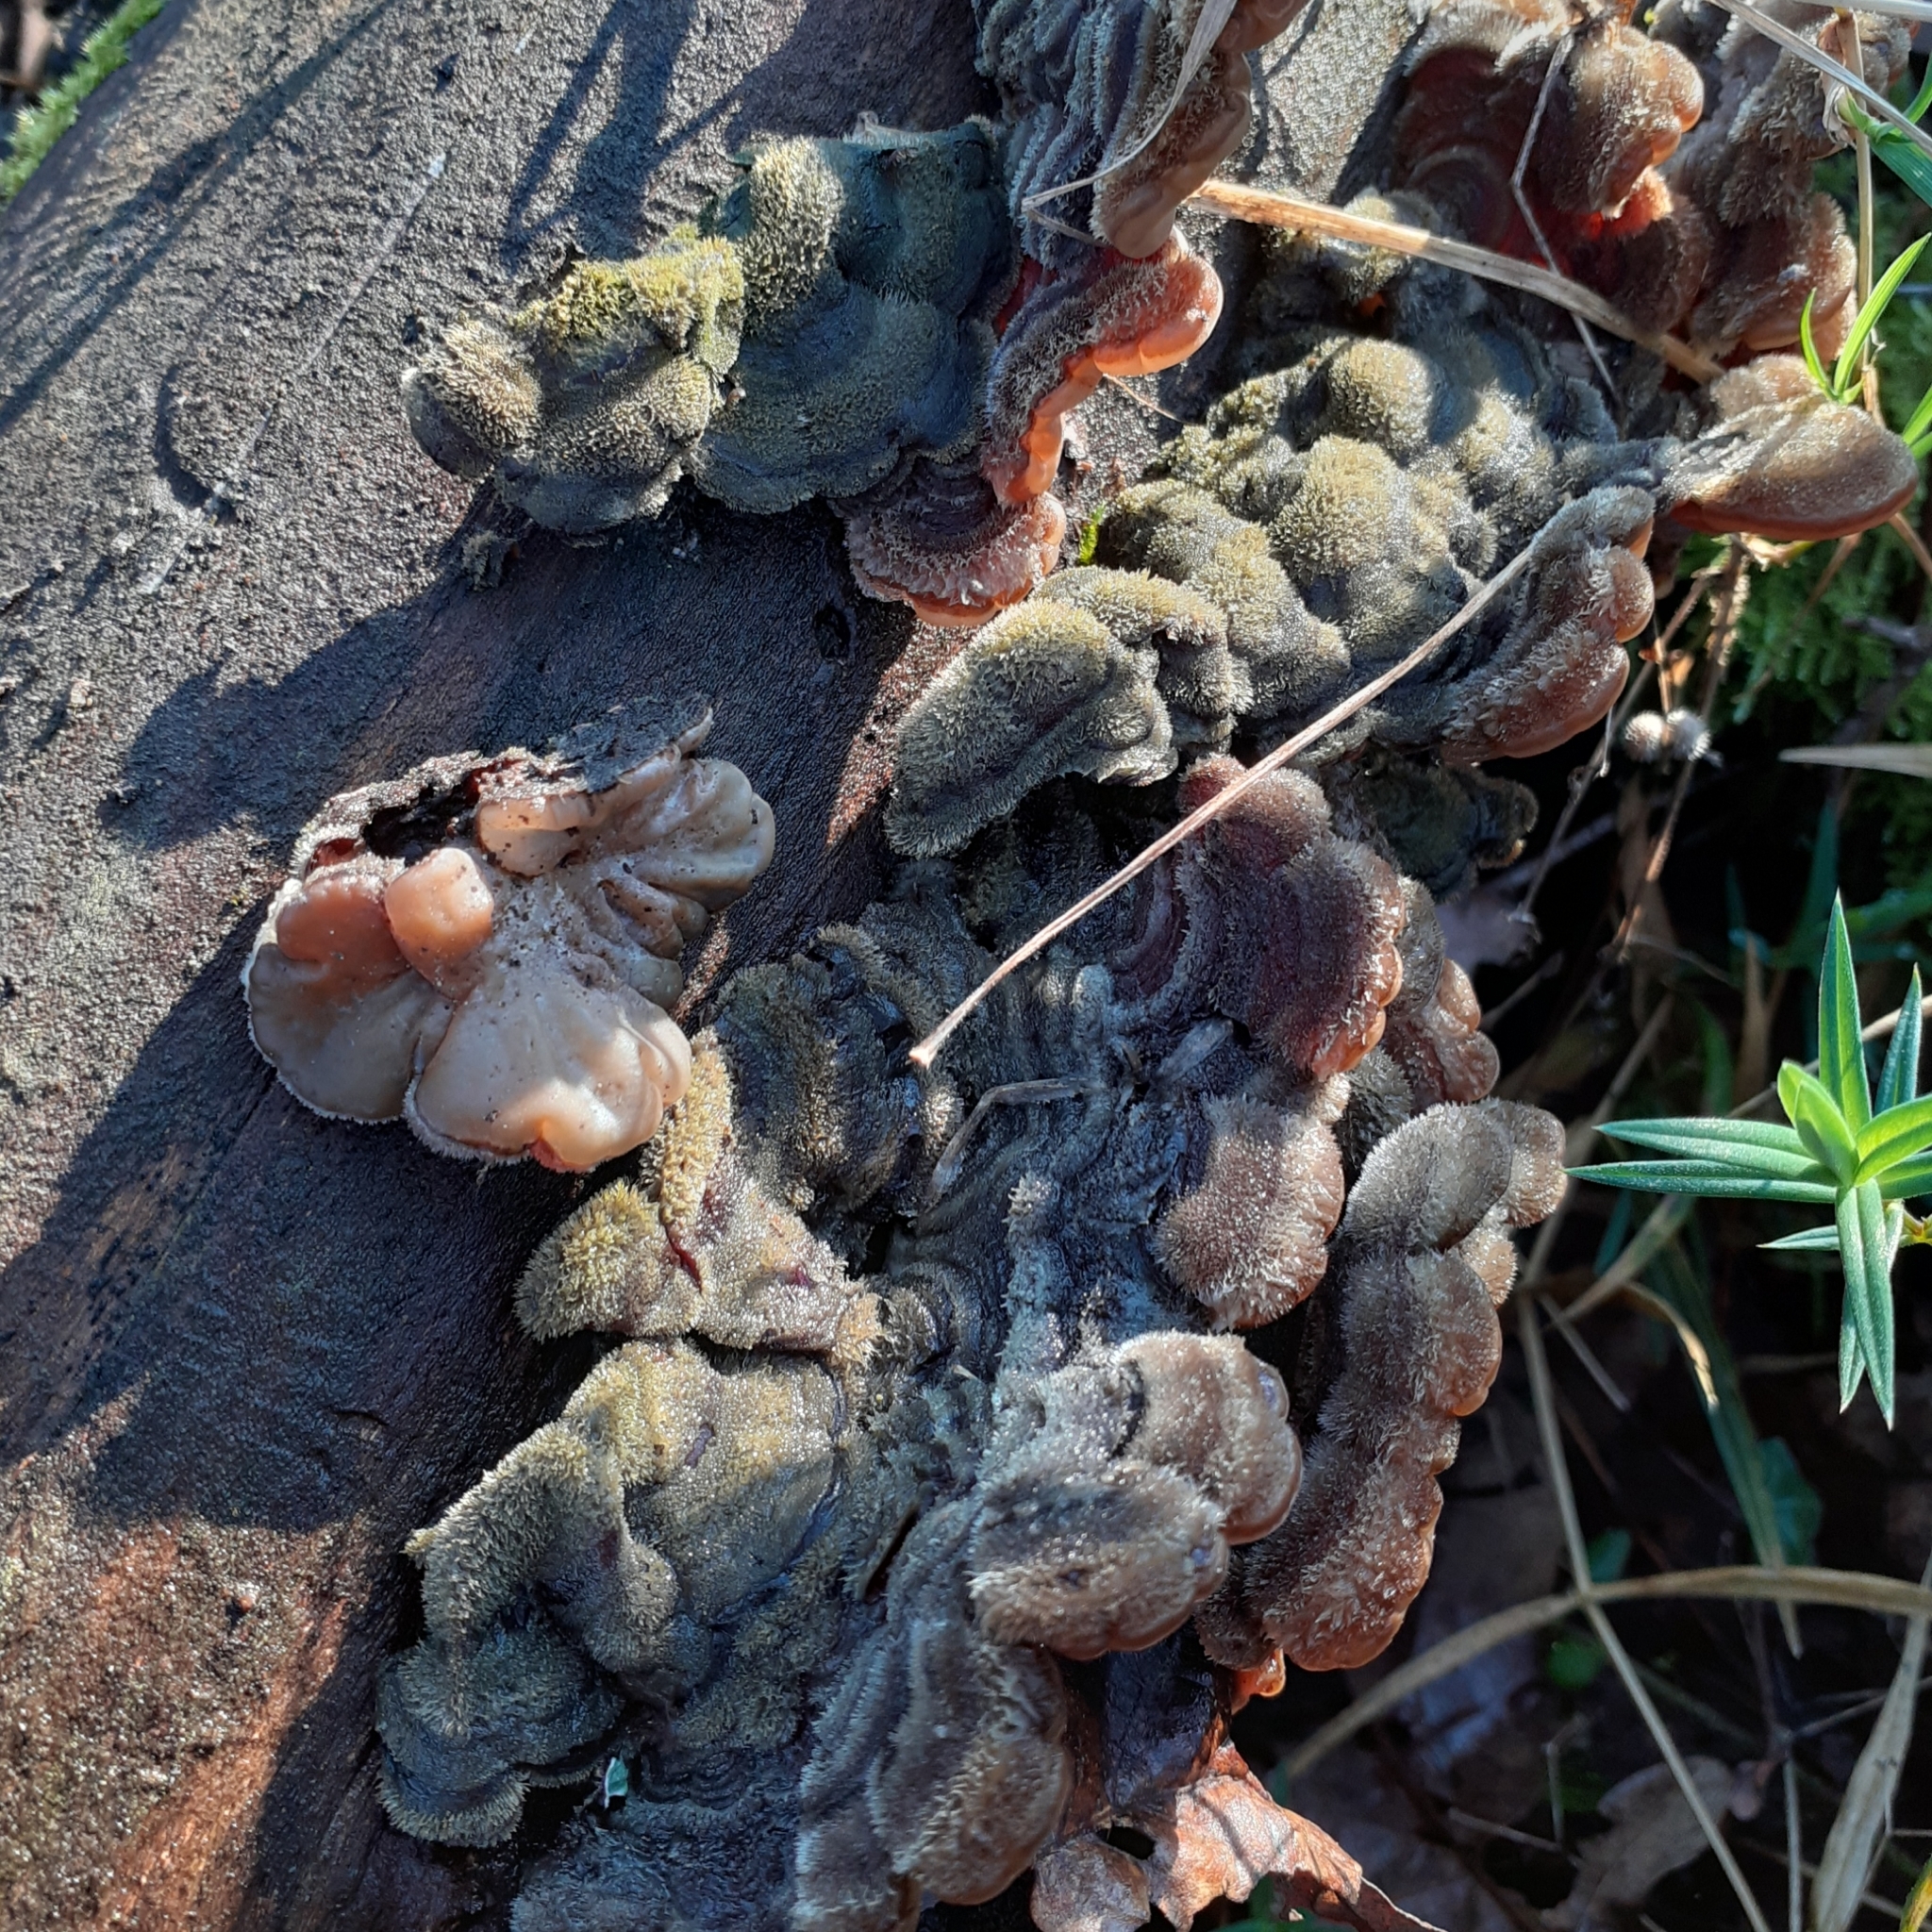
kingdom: Fungi
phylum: Basidiomycota
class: Agaricomycetes
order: Auriculariales
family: Auriculariaceae
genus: Auricularia
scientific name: Auricularia mesenterica
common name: Tripe fungus
